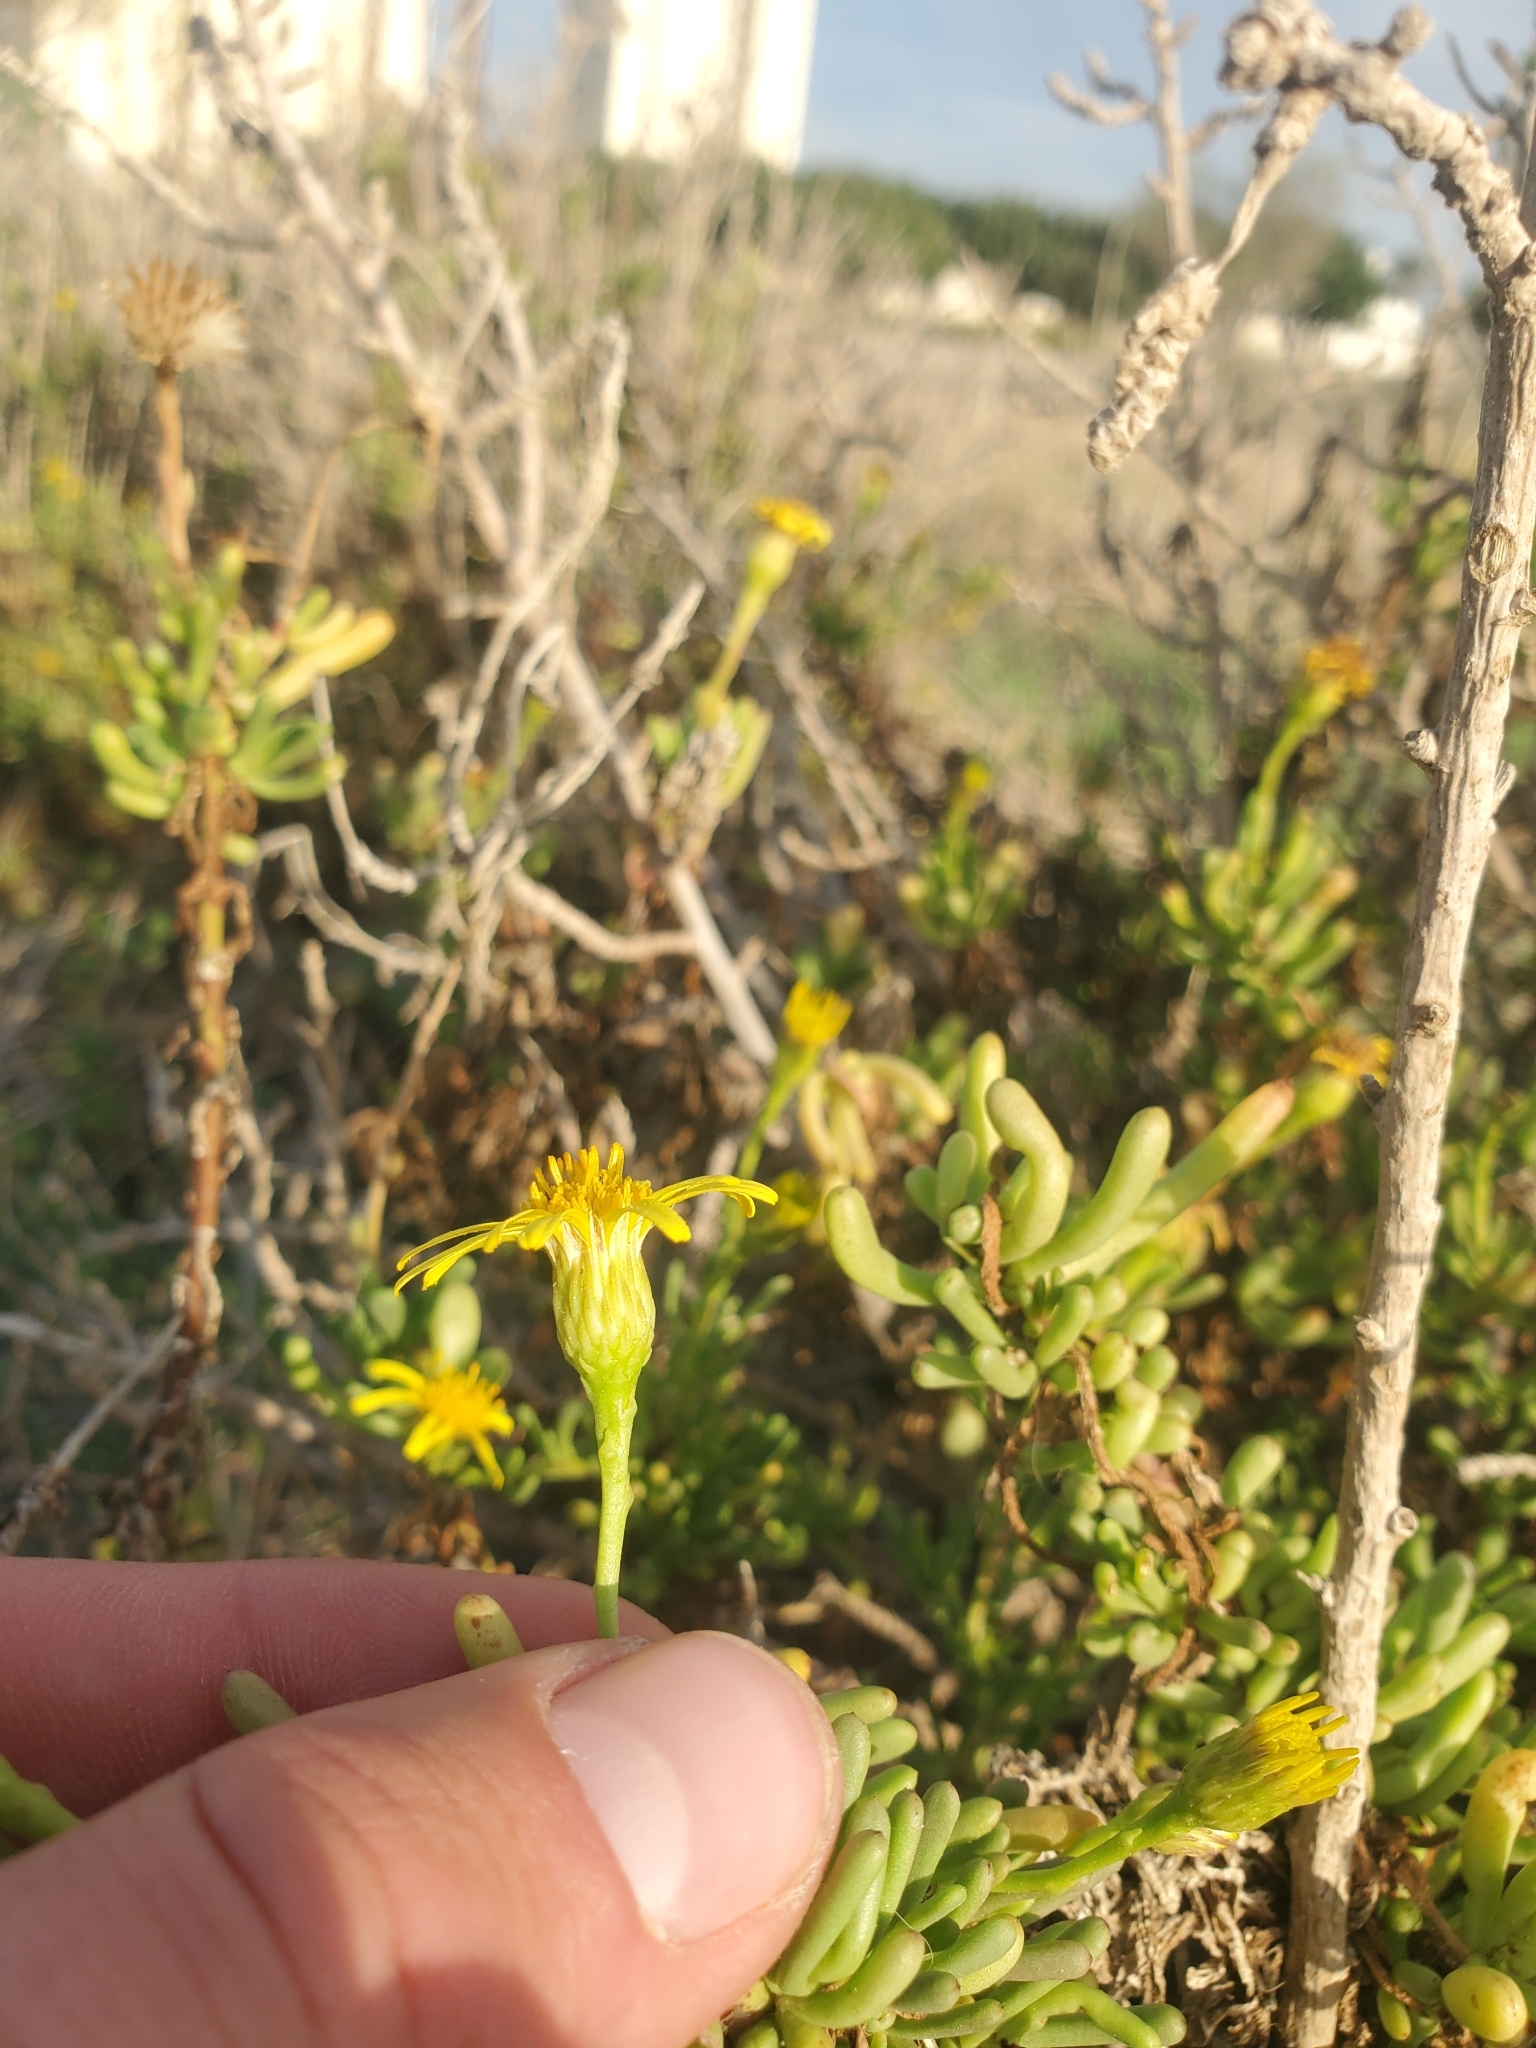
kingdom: Plantae
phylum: Tracheophyta
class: Magnoliopsida
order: Asterales
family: Asteraceae
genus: Limbarda
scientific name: Limbarda crithmoides
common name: Golden samphire
